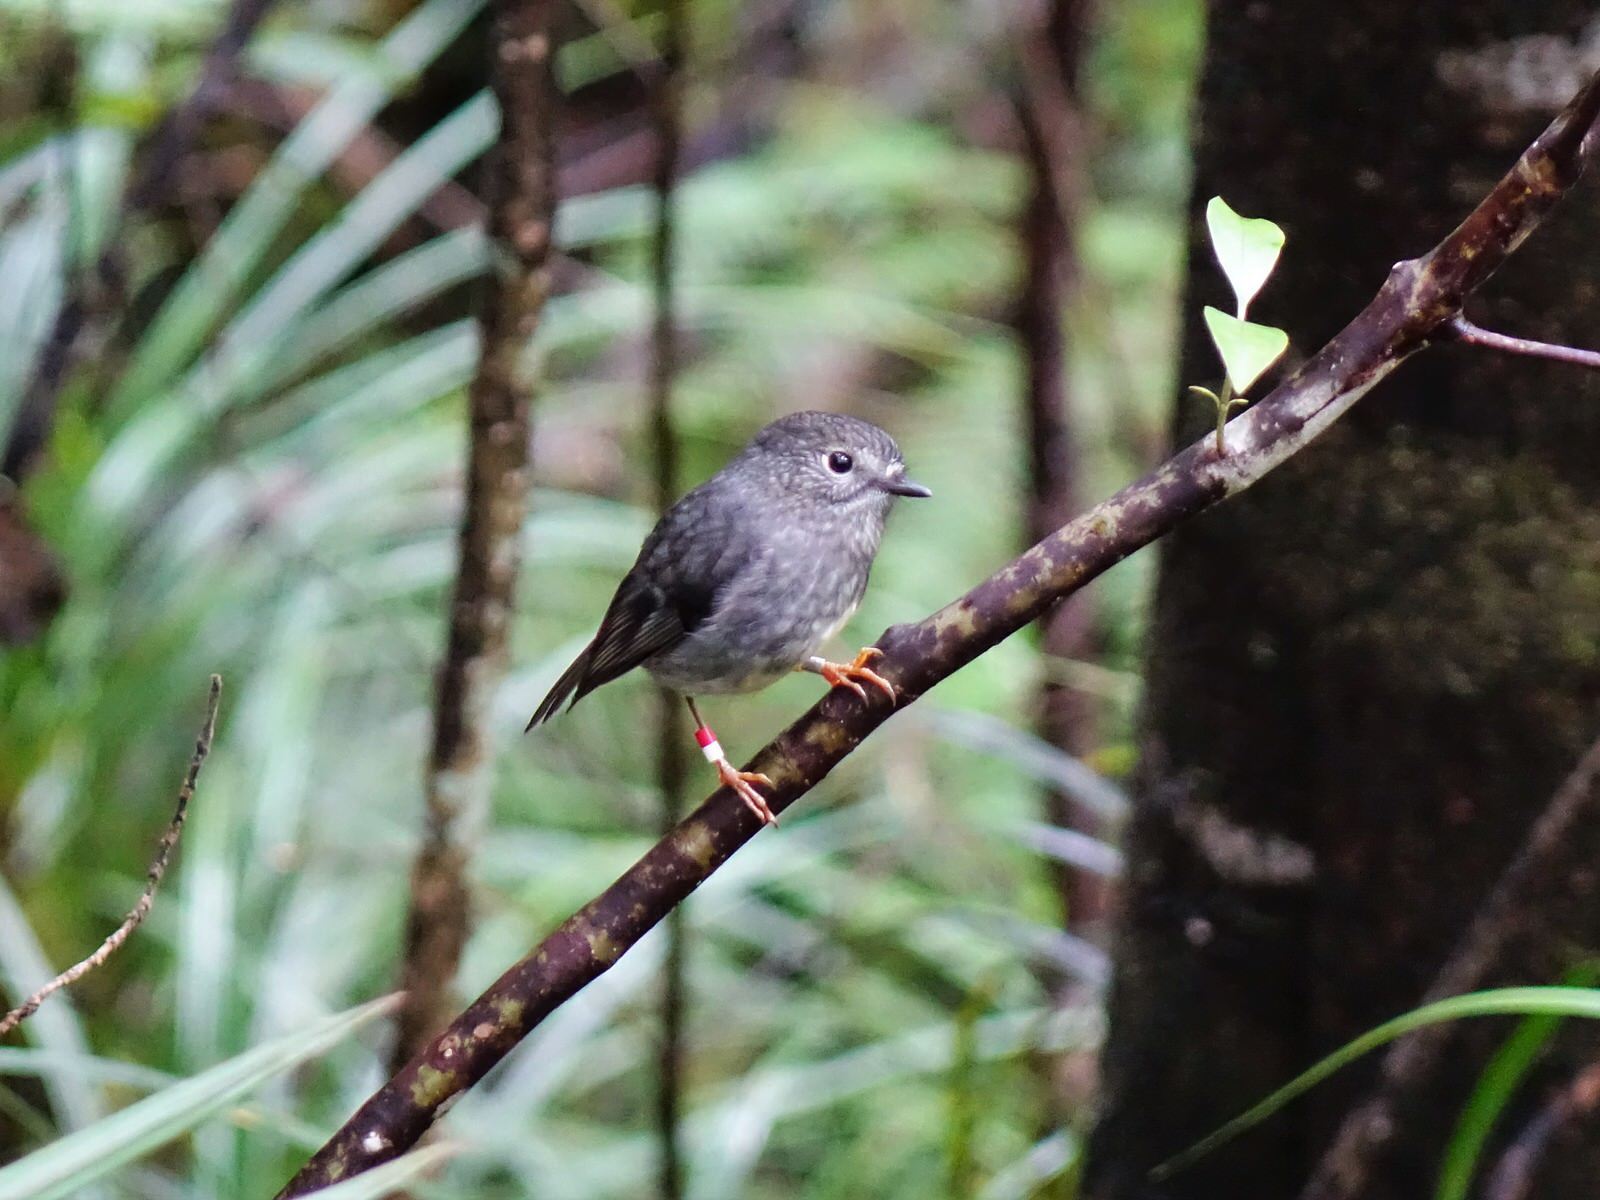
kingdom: Animalia
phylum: Chordata
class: Aves
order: Passeriformes
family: Petroicidae
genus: Petroica
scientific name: Petroica australis
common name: New zealand robin
